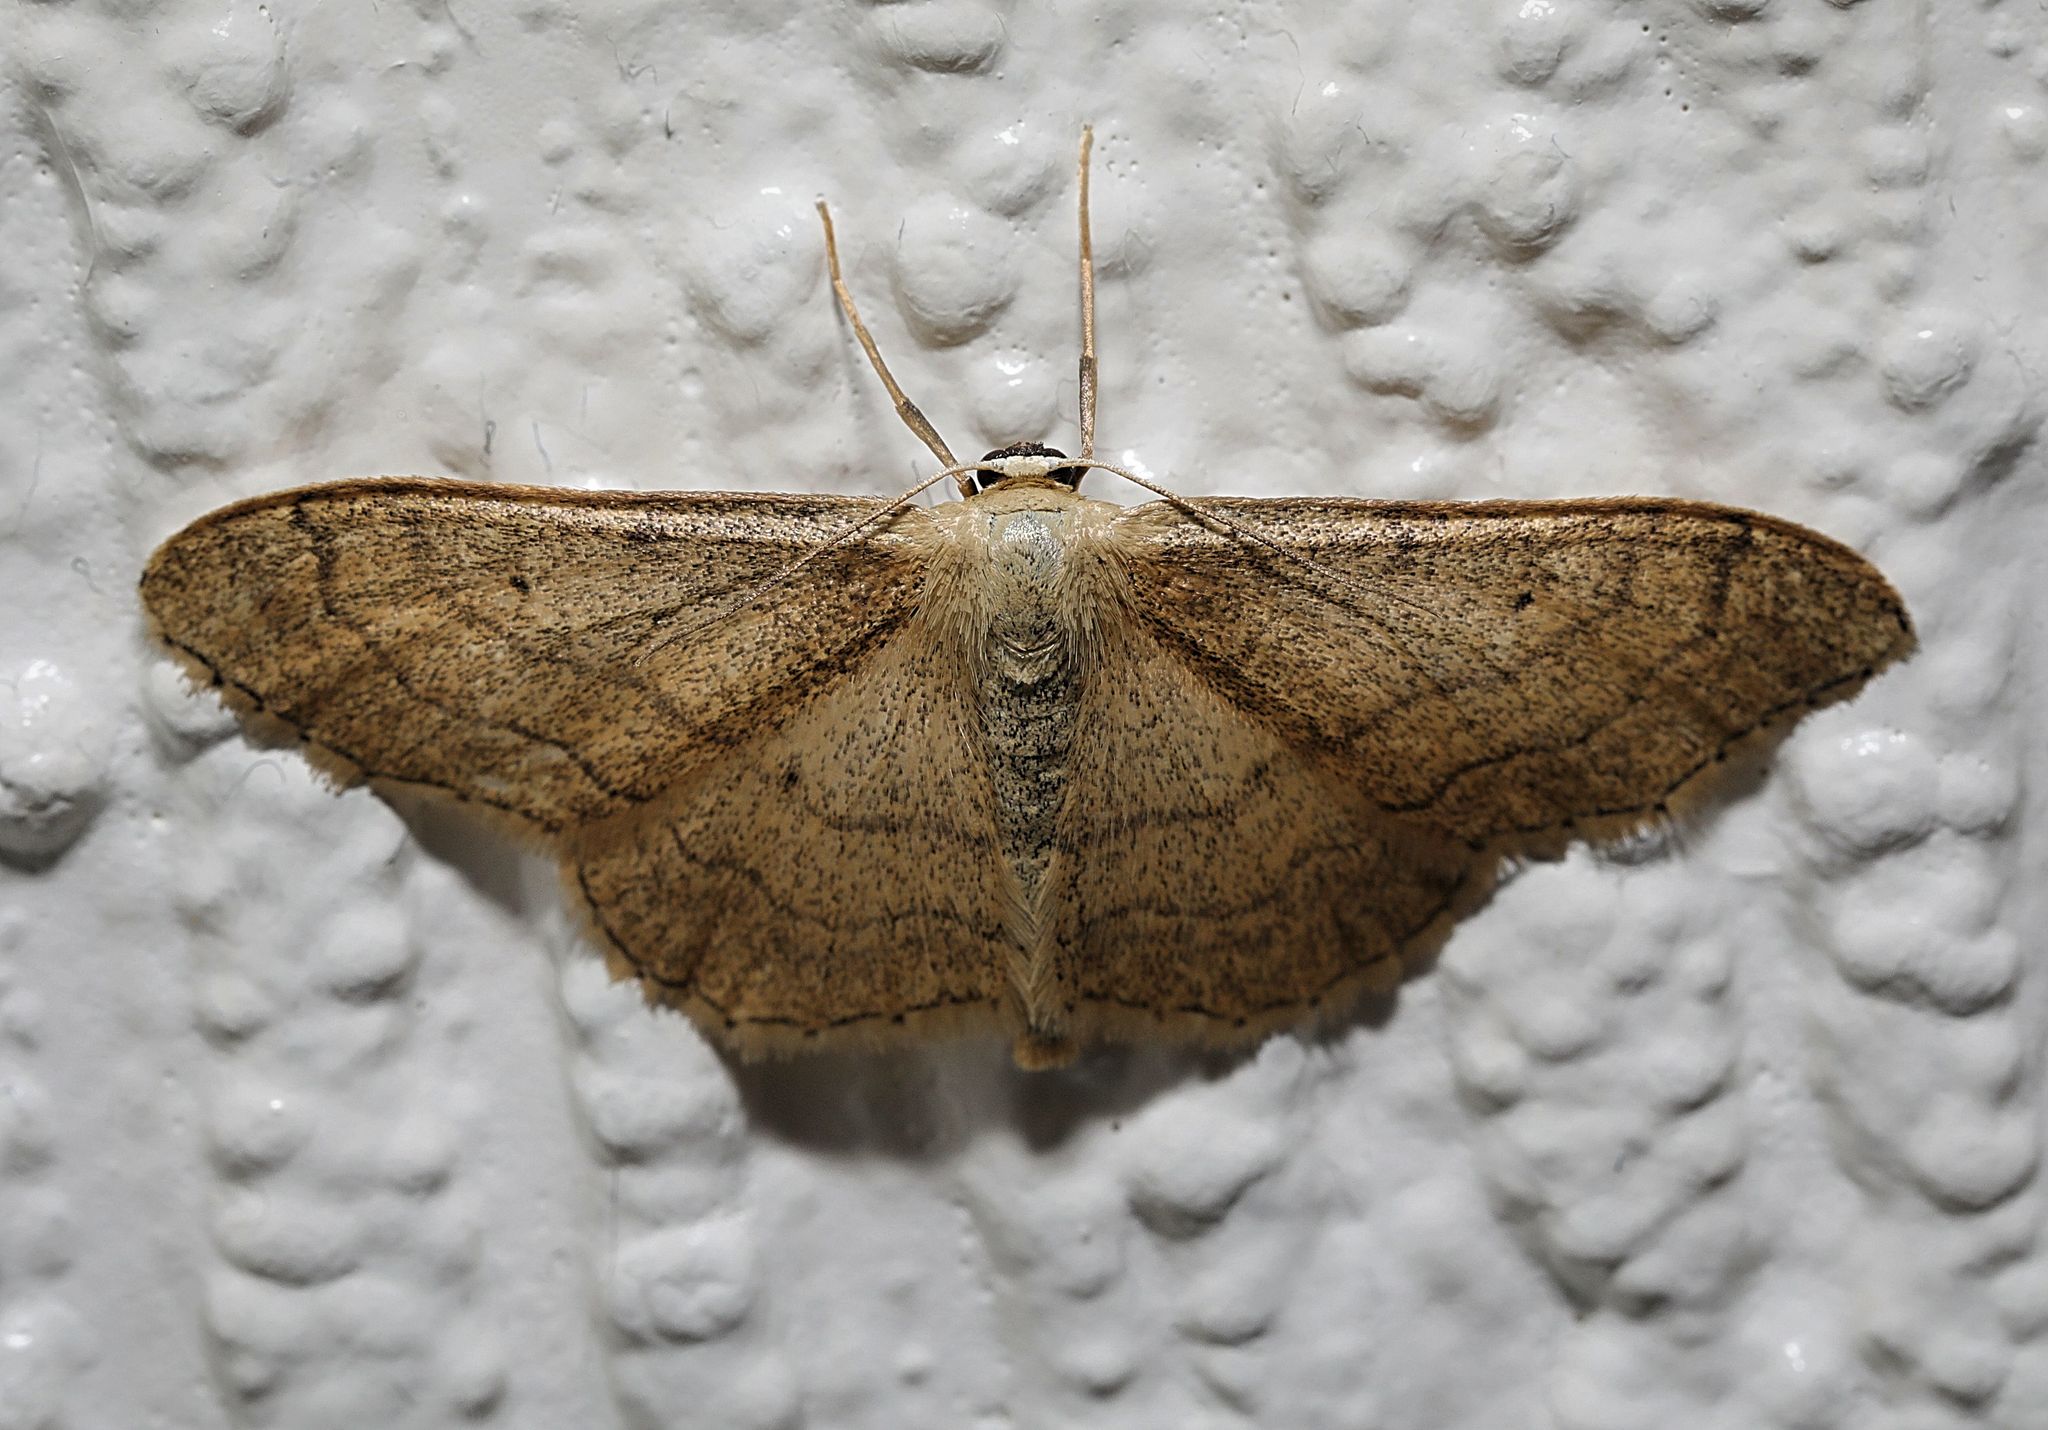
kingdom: Animalia
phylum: Arthropoda
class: Insecta
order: Lepidoptera
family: Geometridae
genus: Idaea
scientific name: Idaea aversata
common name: Riband wave
